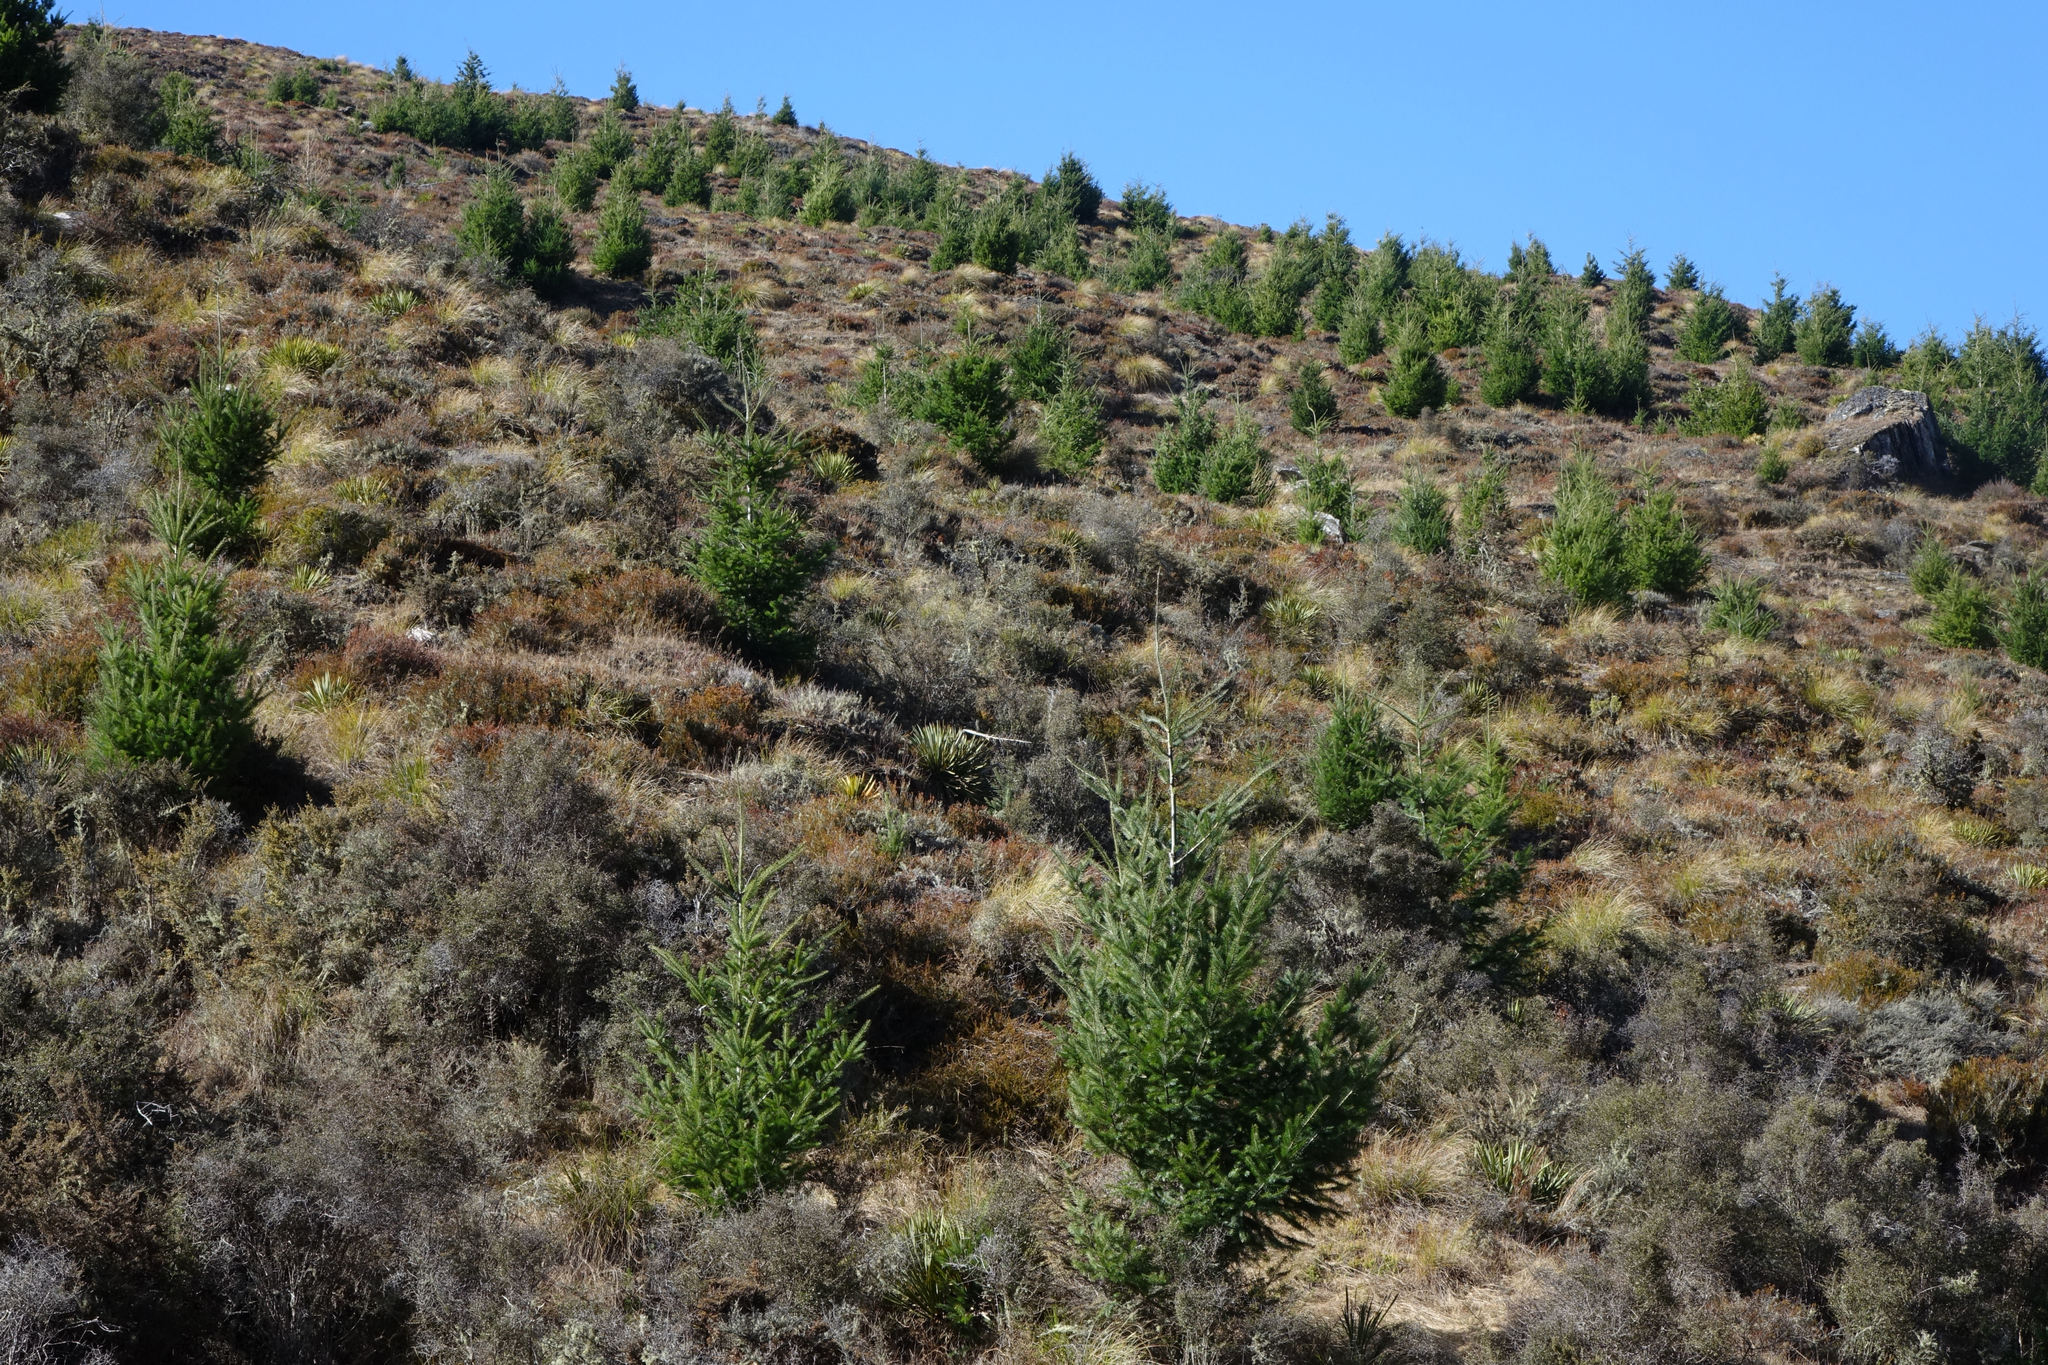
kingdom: Plantae
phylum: Tracheophyta
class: Pinopsida
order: Pinales
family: Pinaceae
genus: Pseudotsuga
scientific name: Pseudotsuga menziesii
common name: Douglas fir
